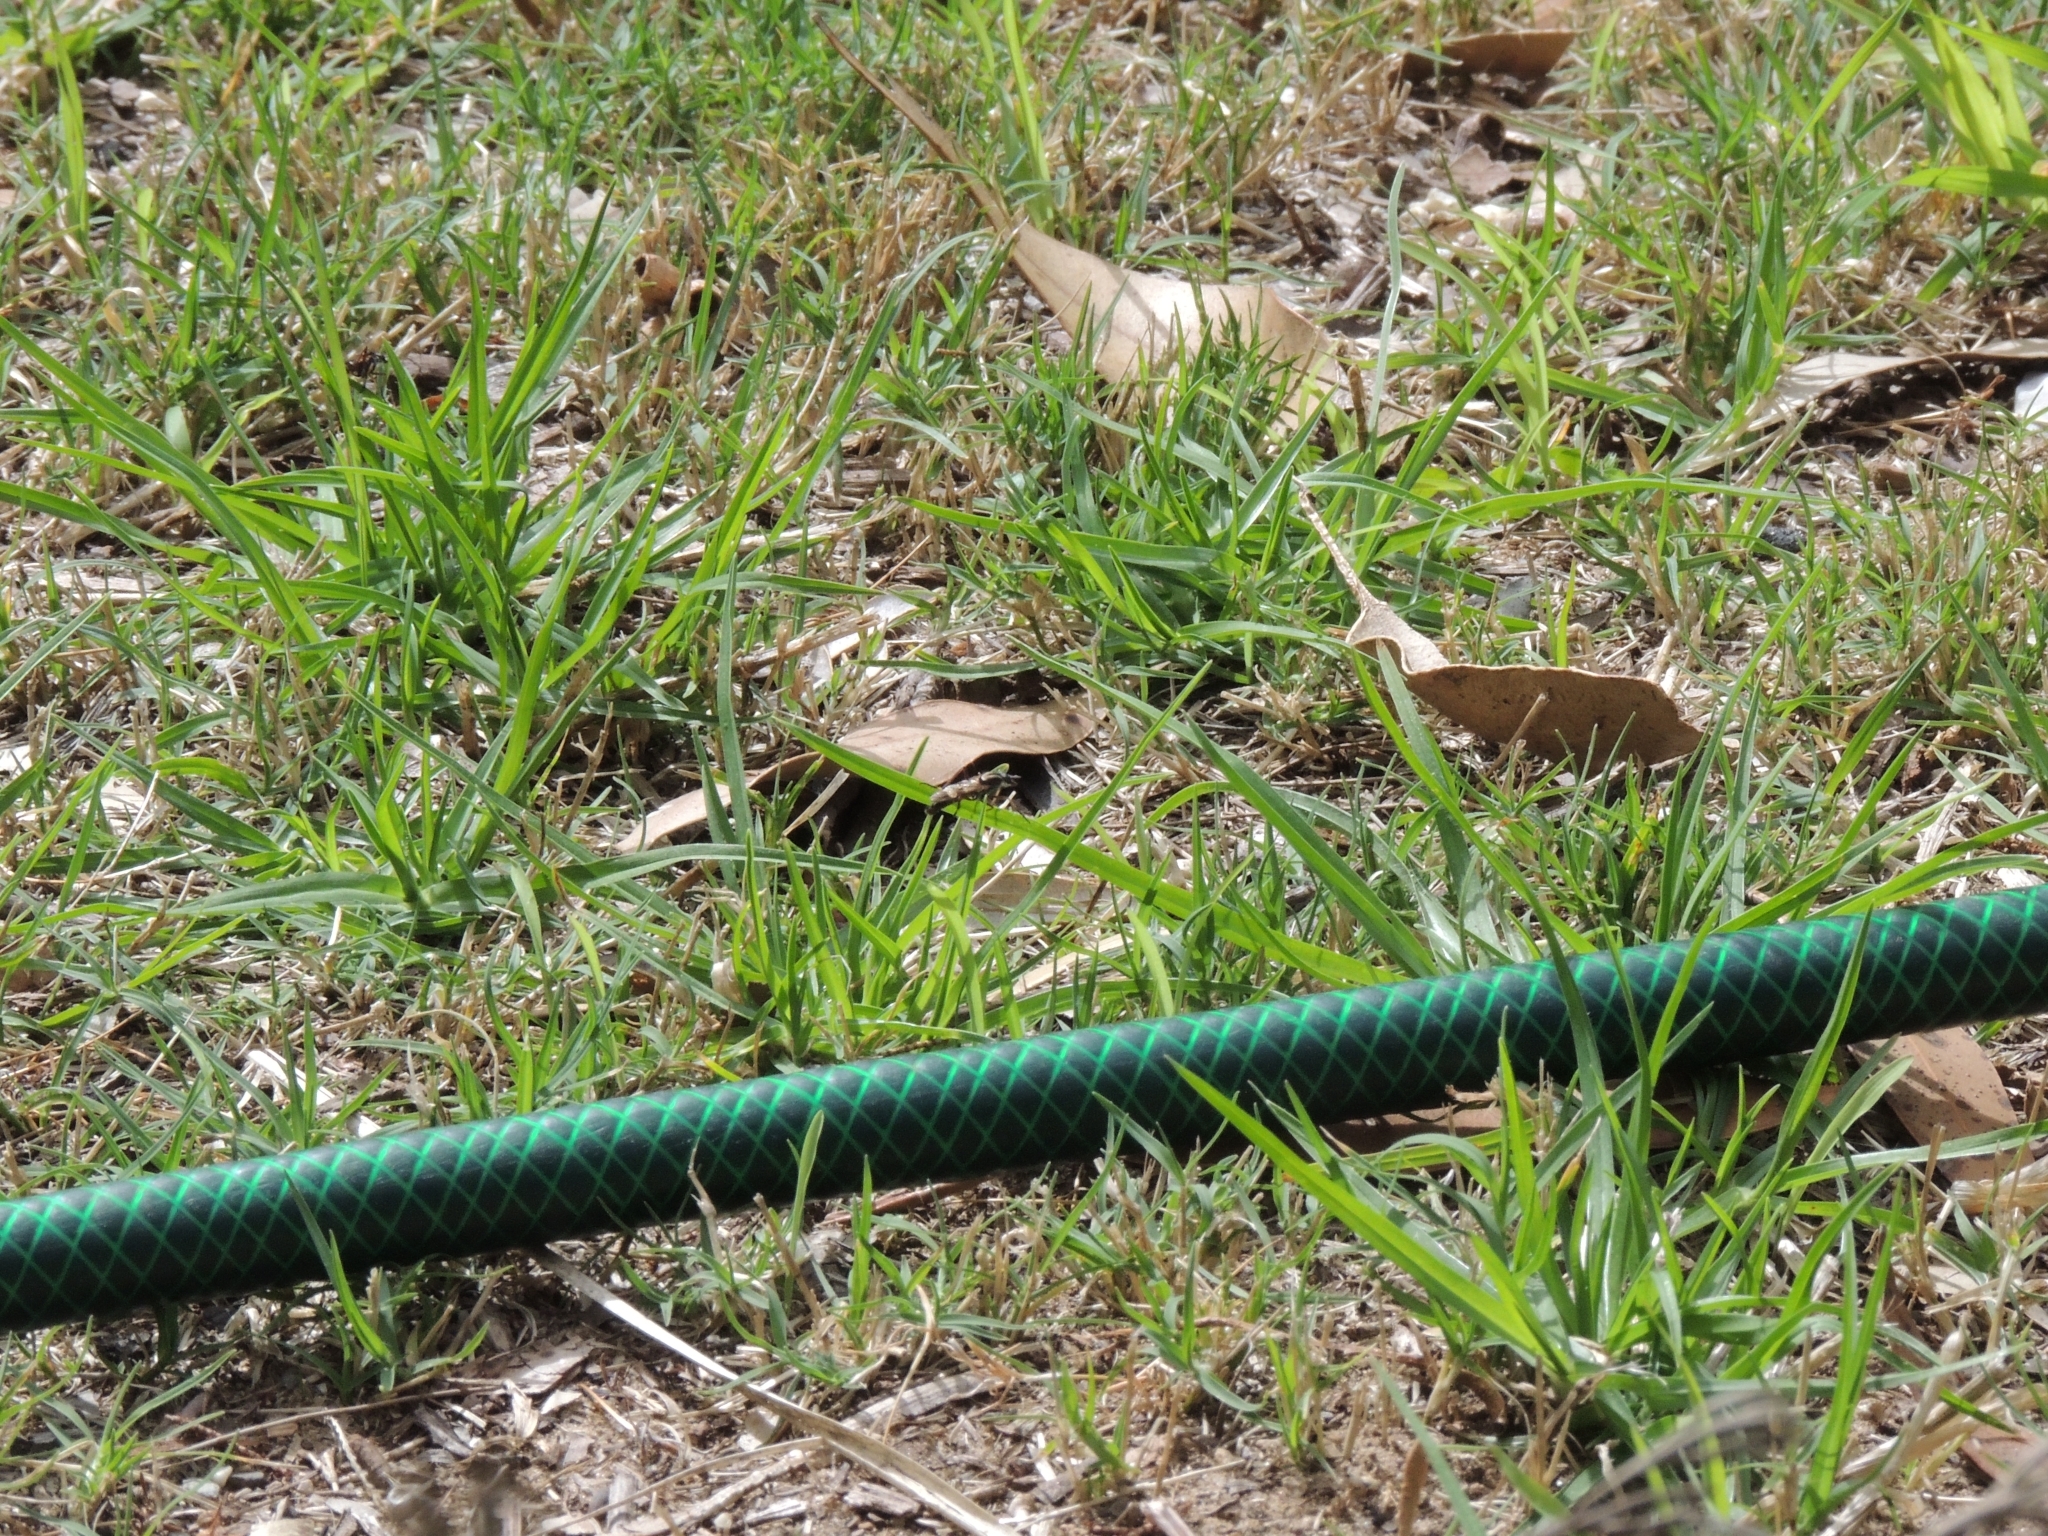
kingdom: Animalia
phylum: Arthropoda
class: Insecta
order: Diptera
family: Therevidae
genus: Ectinorhynchus
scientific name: Ectinorhynchus
